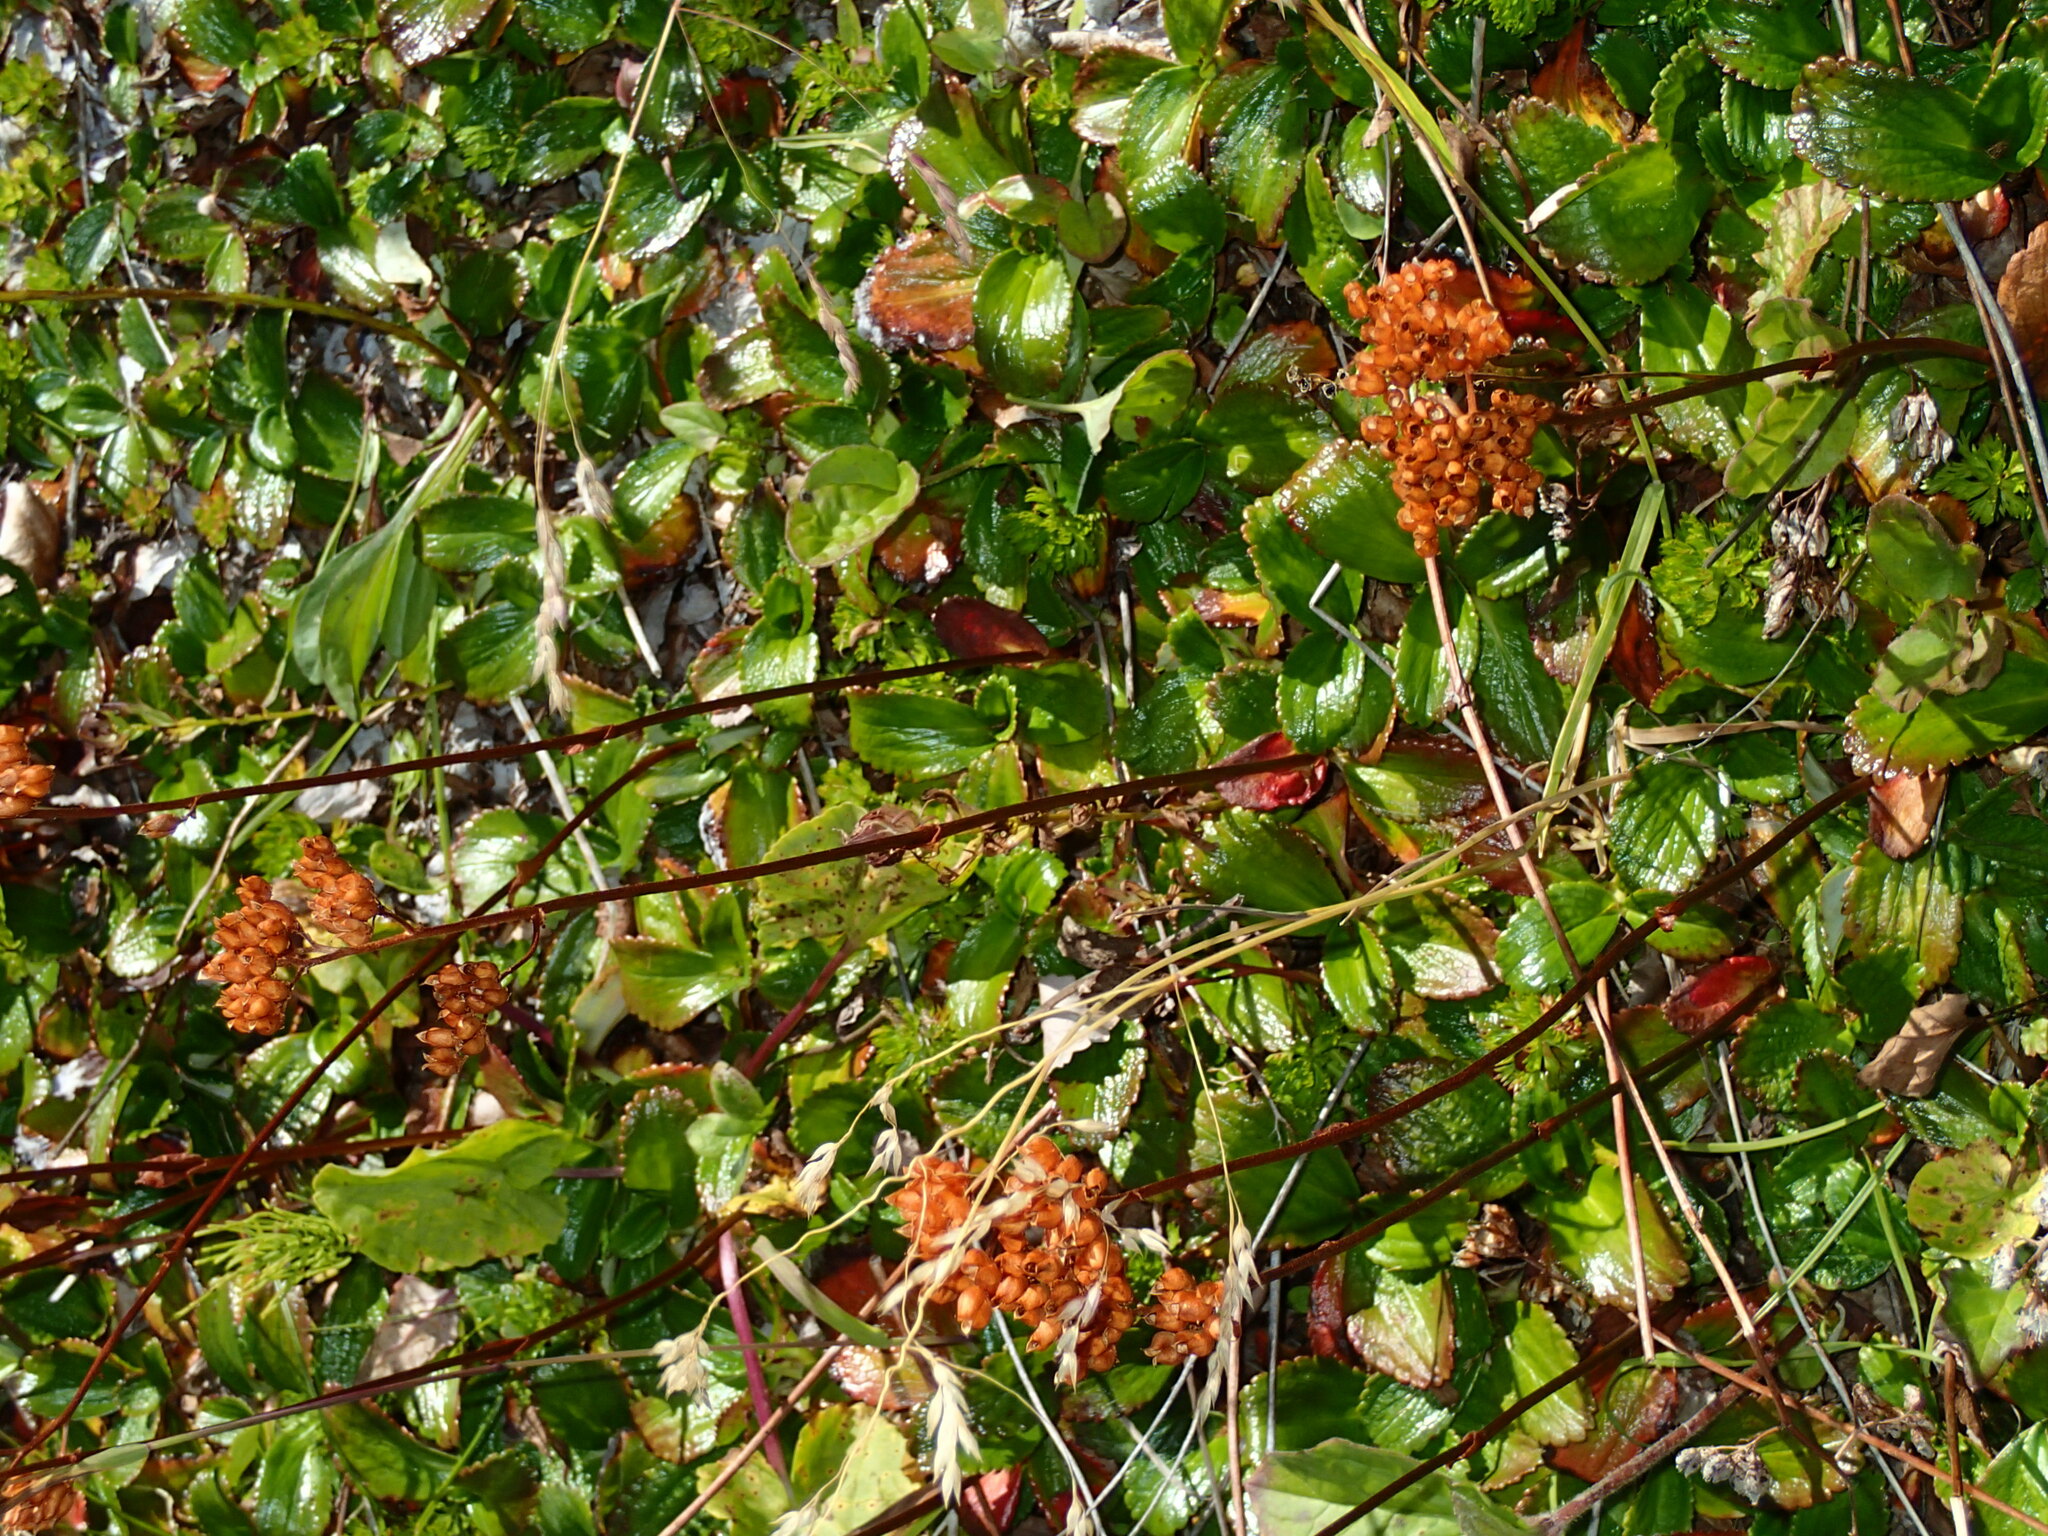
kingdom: Plantae
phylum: Tracheophyta
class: Magnoliopsida
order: Saxifragales
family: Saxifragaceae
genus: Leptarrhena
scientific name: Leptarrhena pyrolifolia
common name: Leatherleaf-saxifrage
